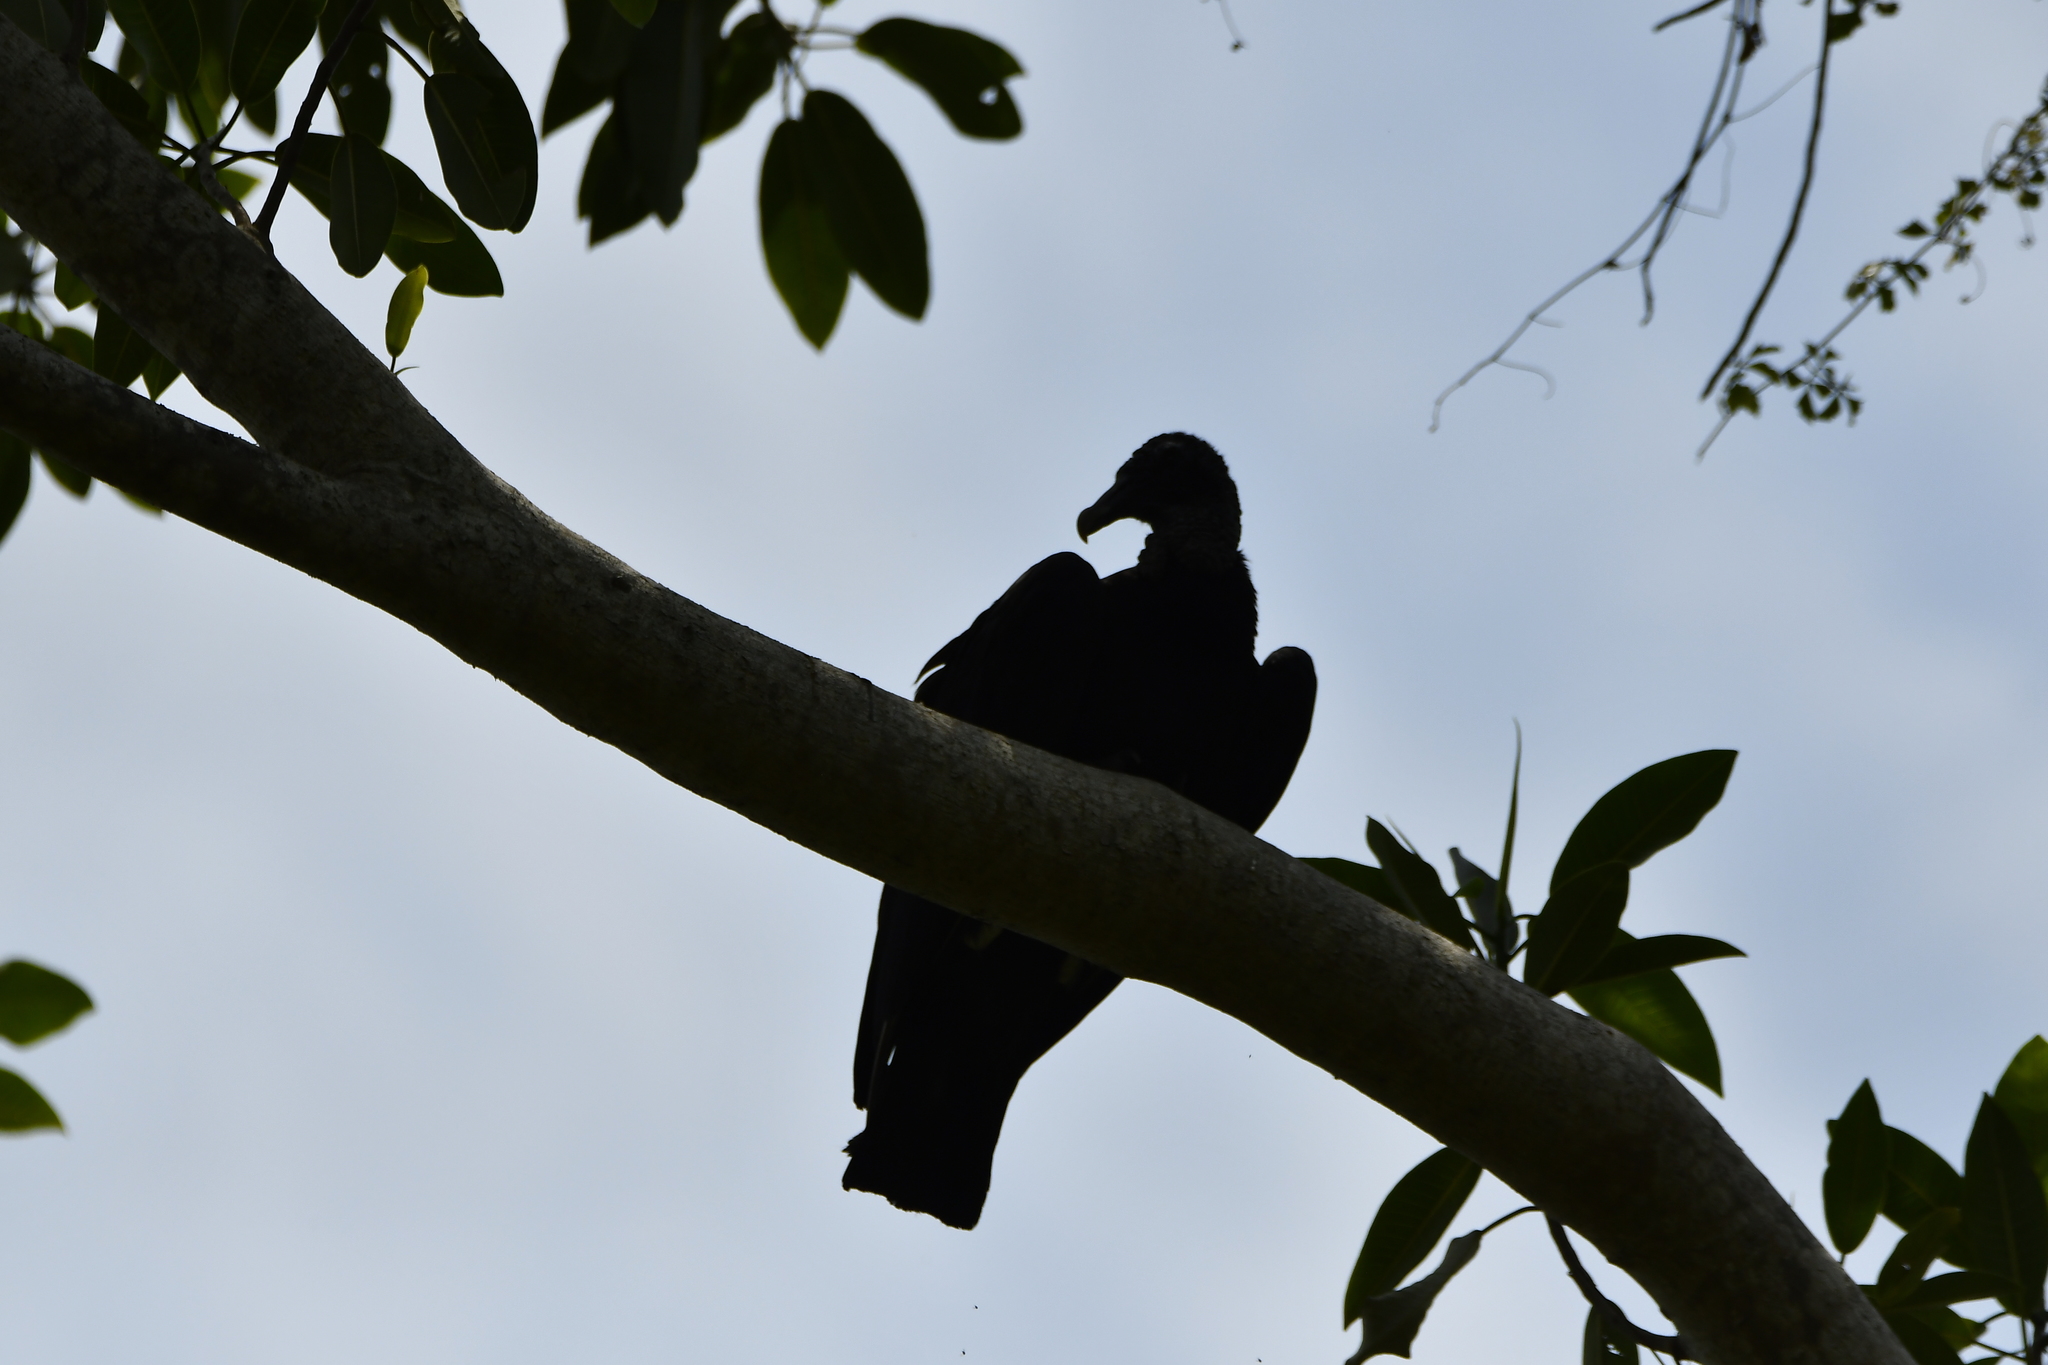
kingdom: Animalia
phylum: Chordata
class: Aves
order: Accipitriformes
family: Cathartidae
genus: Coragyps
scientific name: Coragyps atratus
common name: Black vulture
